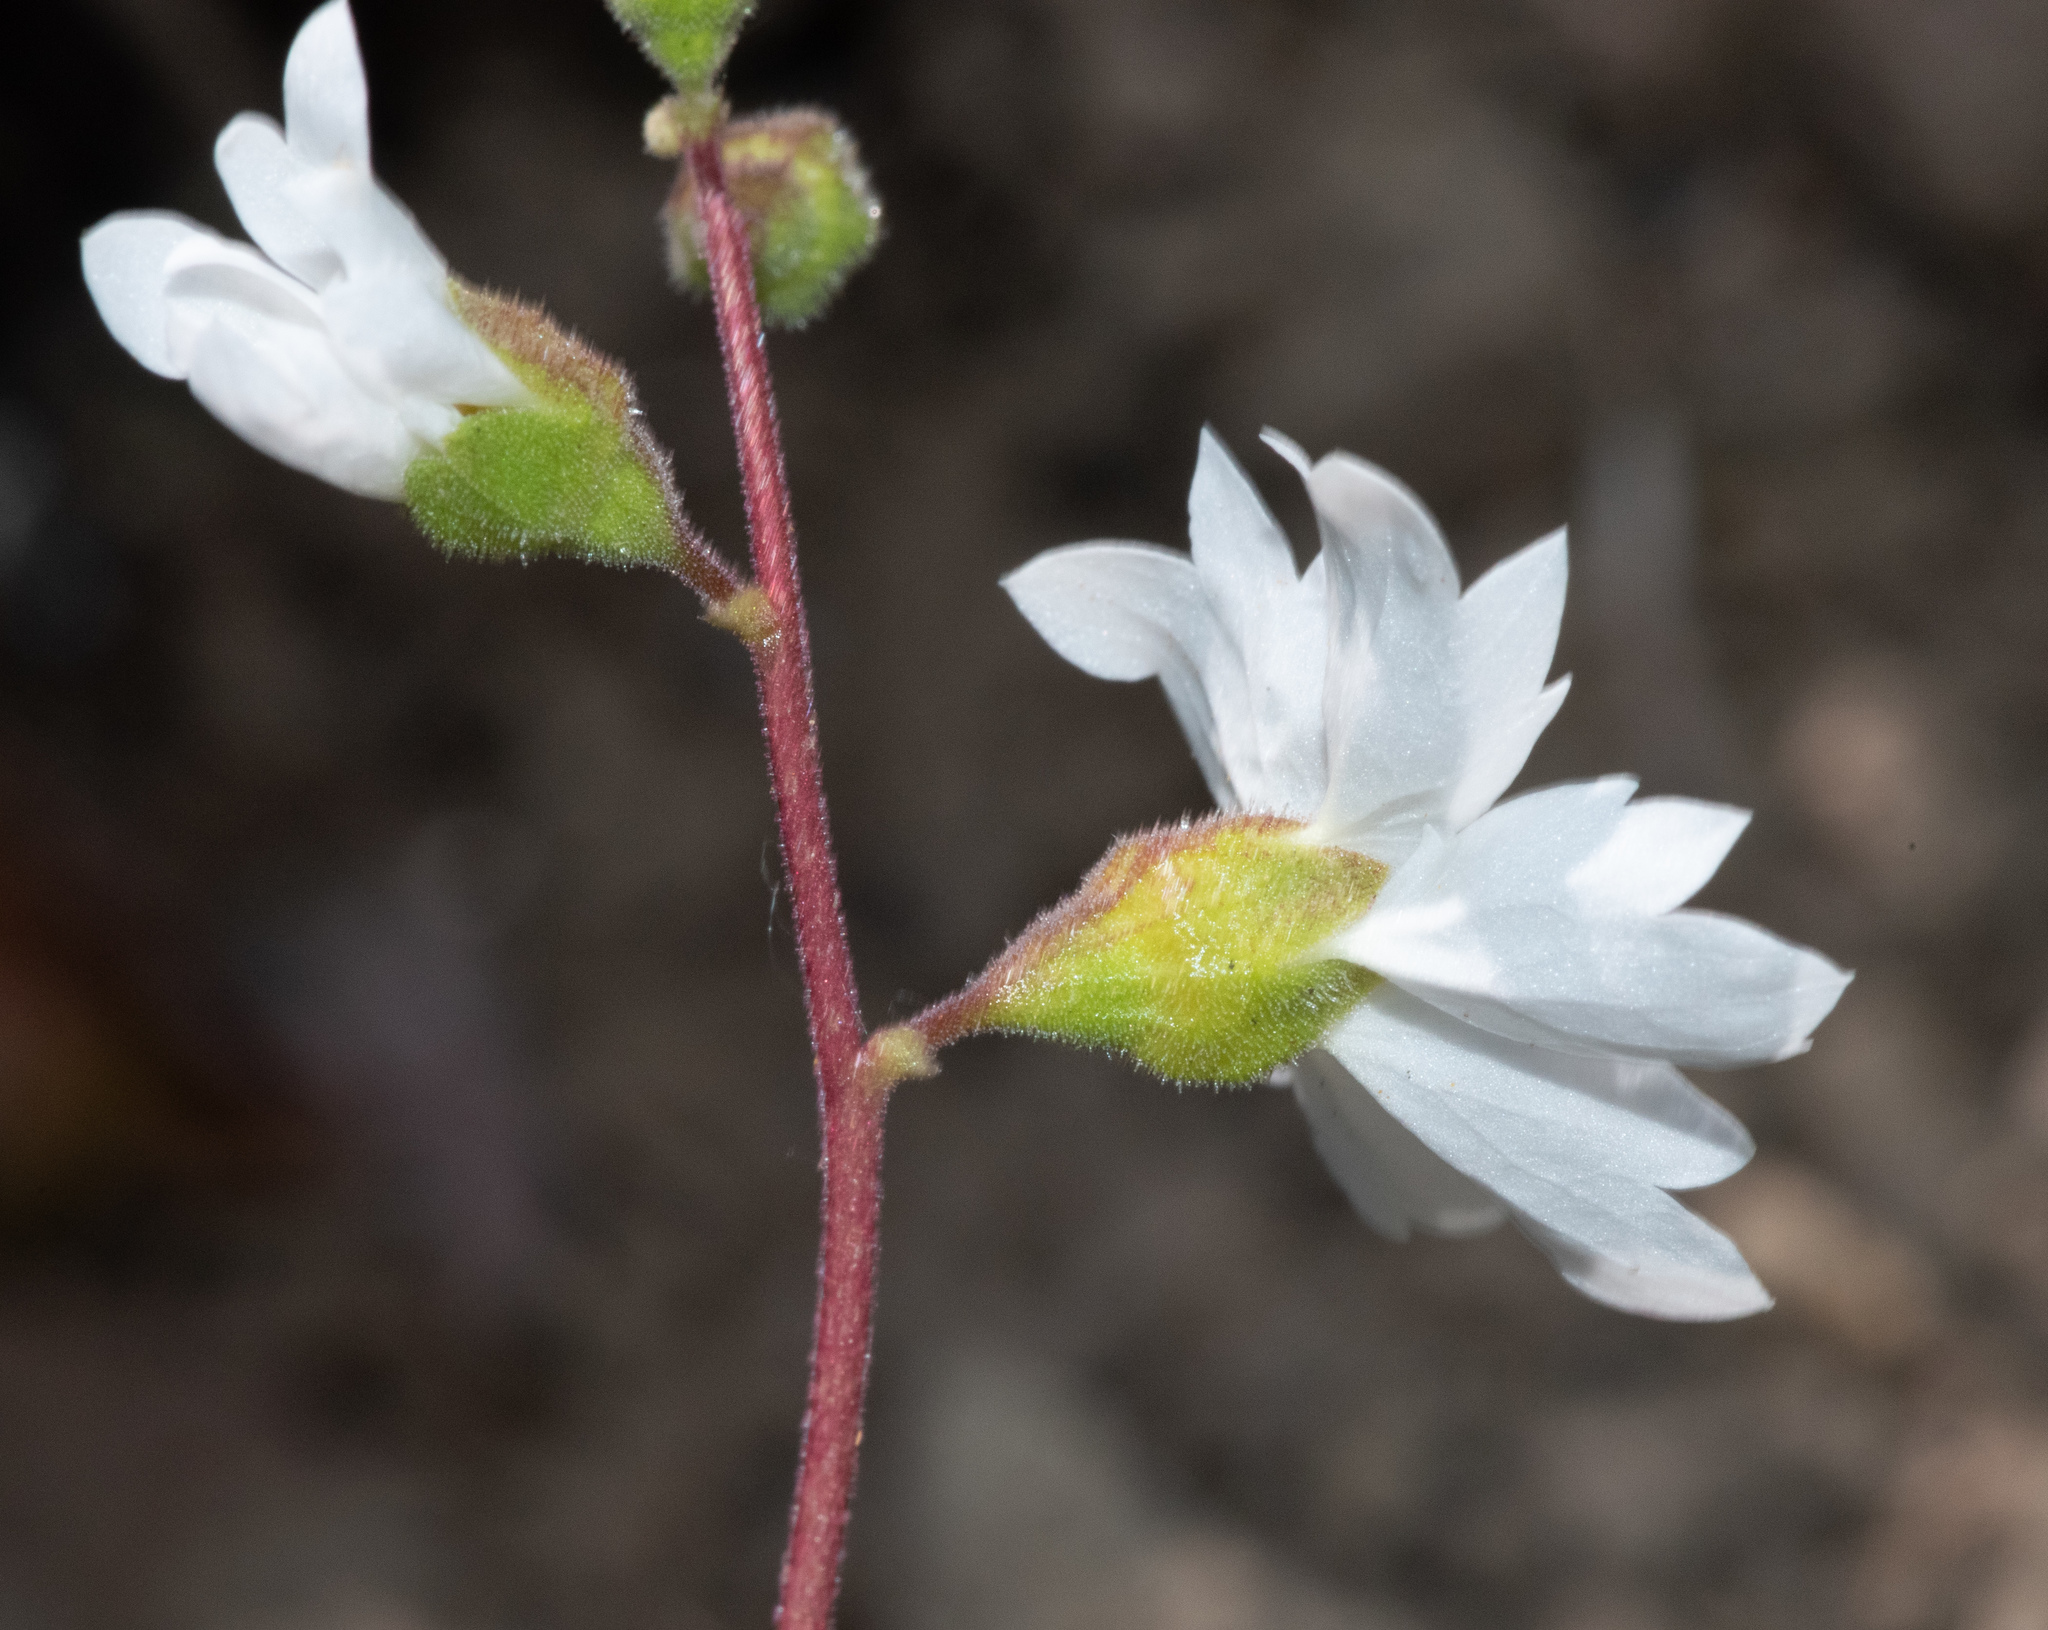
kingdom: Plantae
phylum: Tracheophyta
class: Magnoliopsida
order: Saxifragales
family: Saxifragaceae
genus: Lithophragma
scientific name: Lithophragma affine
